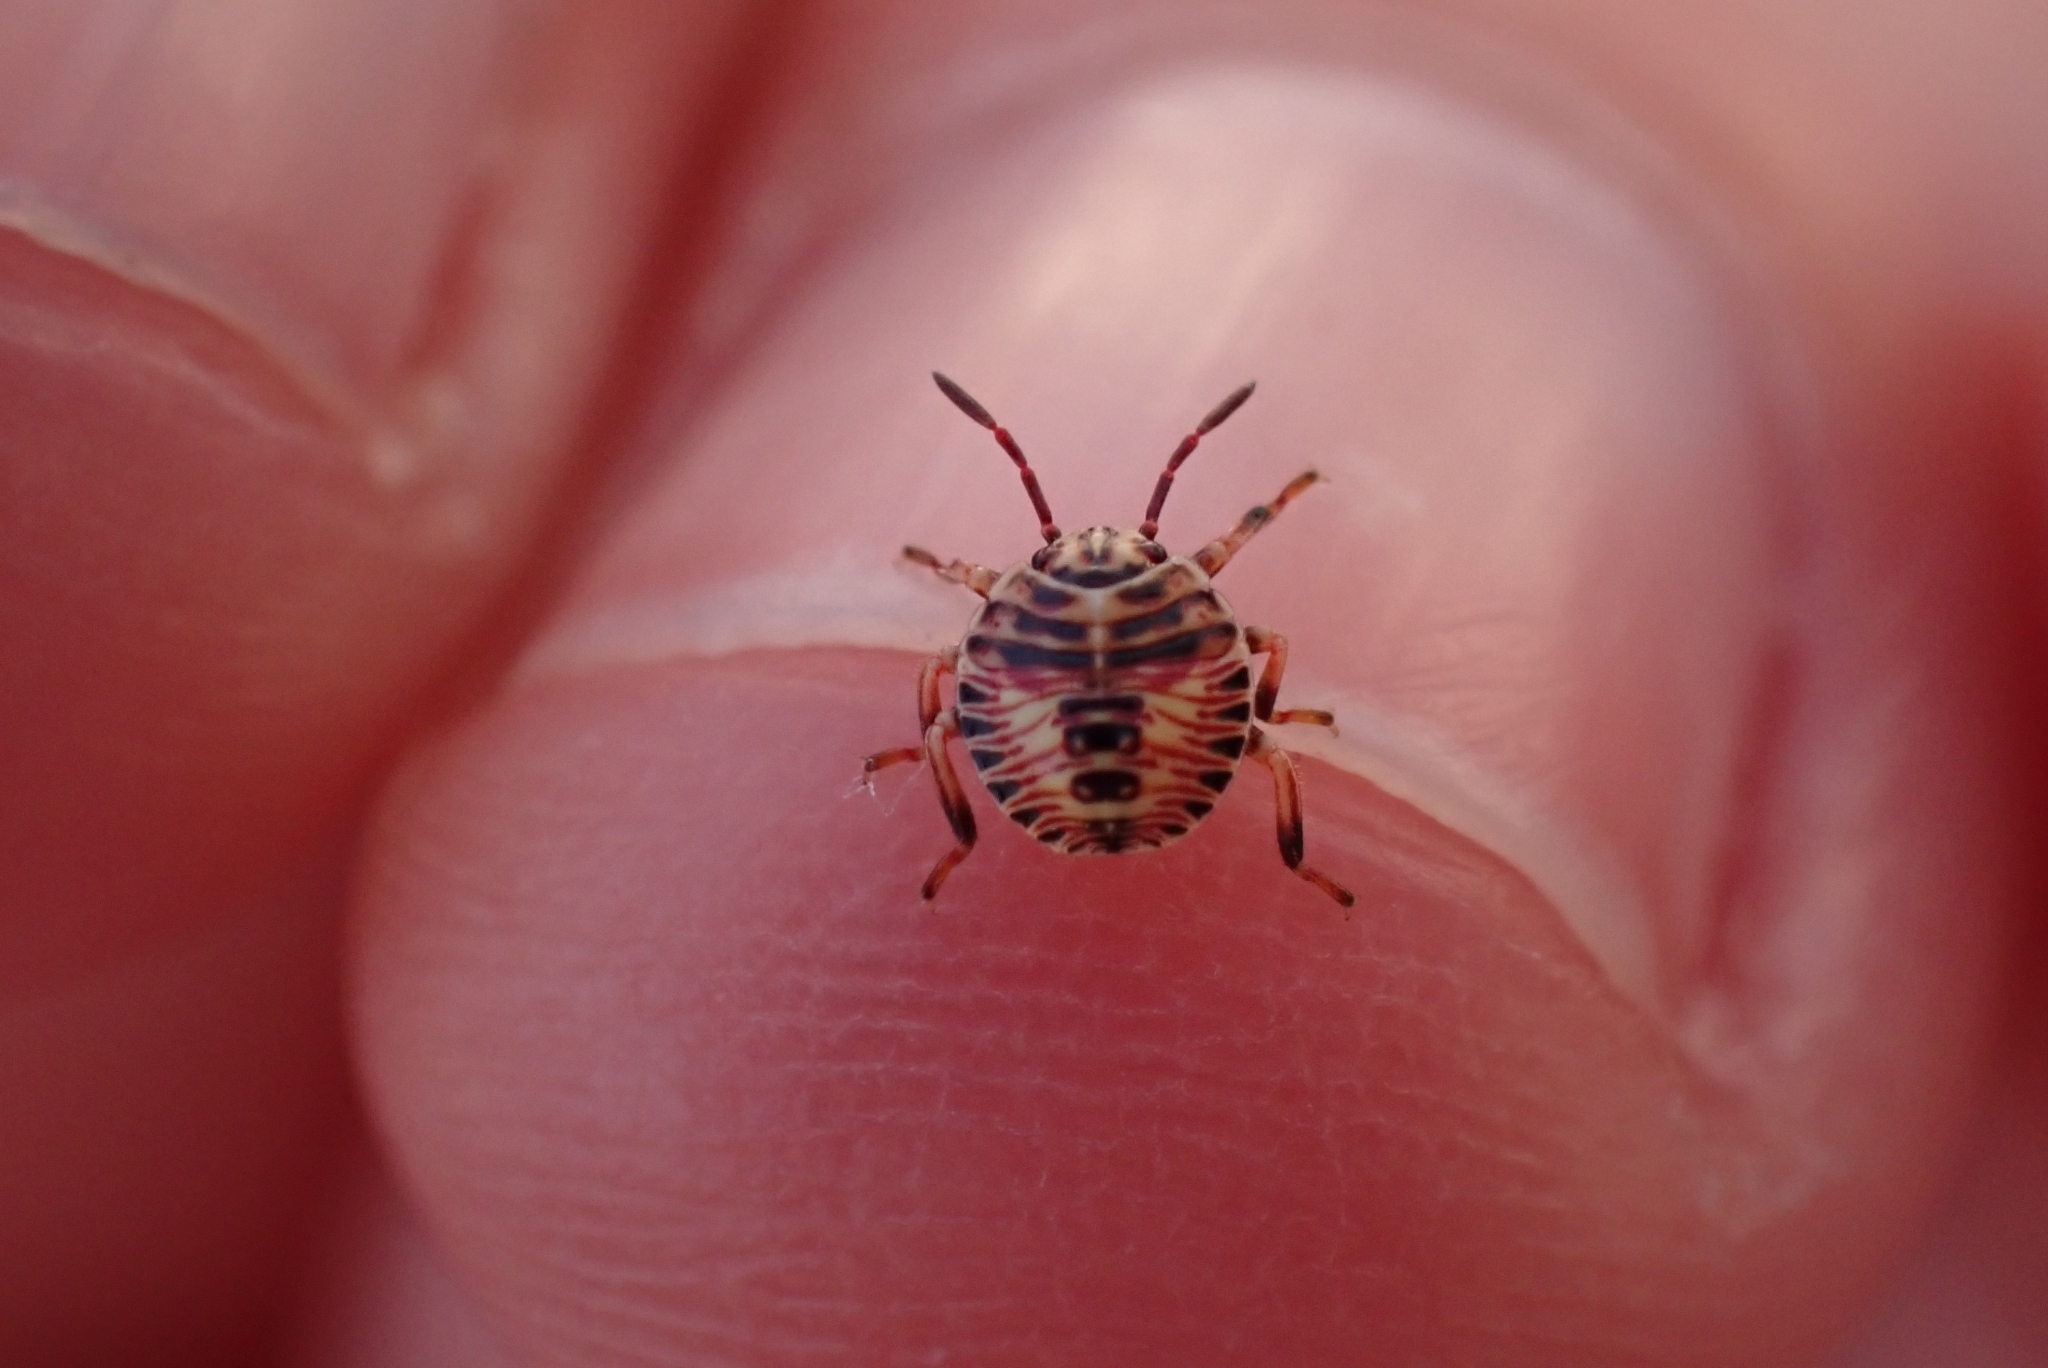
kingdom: Animalia
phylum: Arthropoda
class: Insecta
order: Hemiptera
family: Pentatomidae
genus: Apodiphus
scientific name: Apodiphus amygdali
